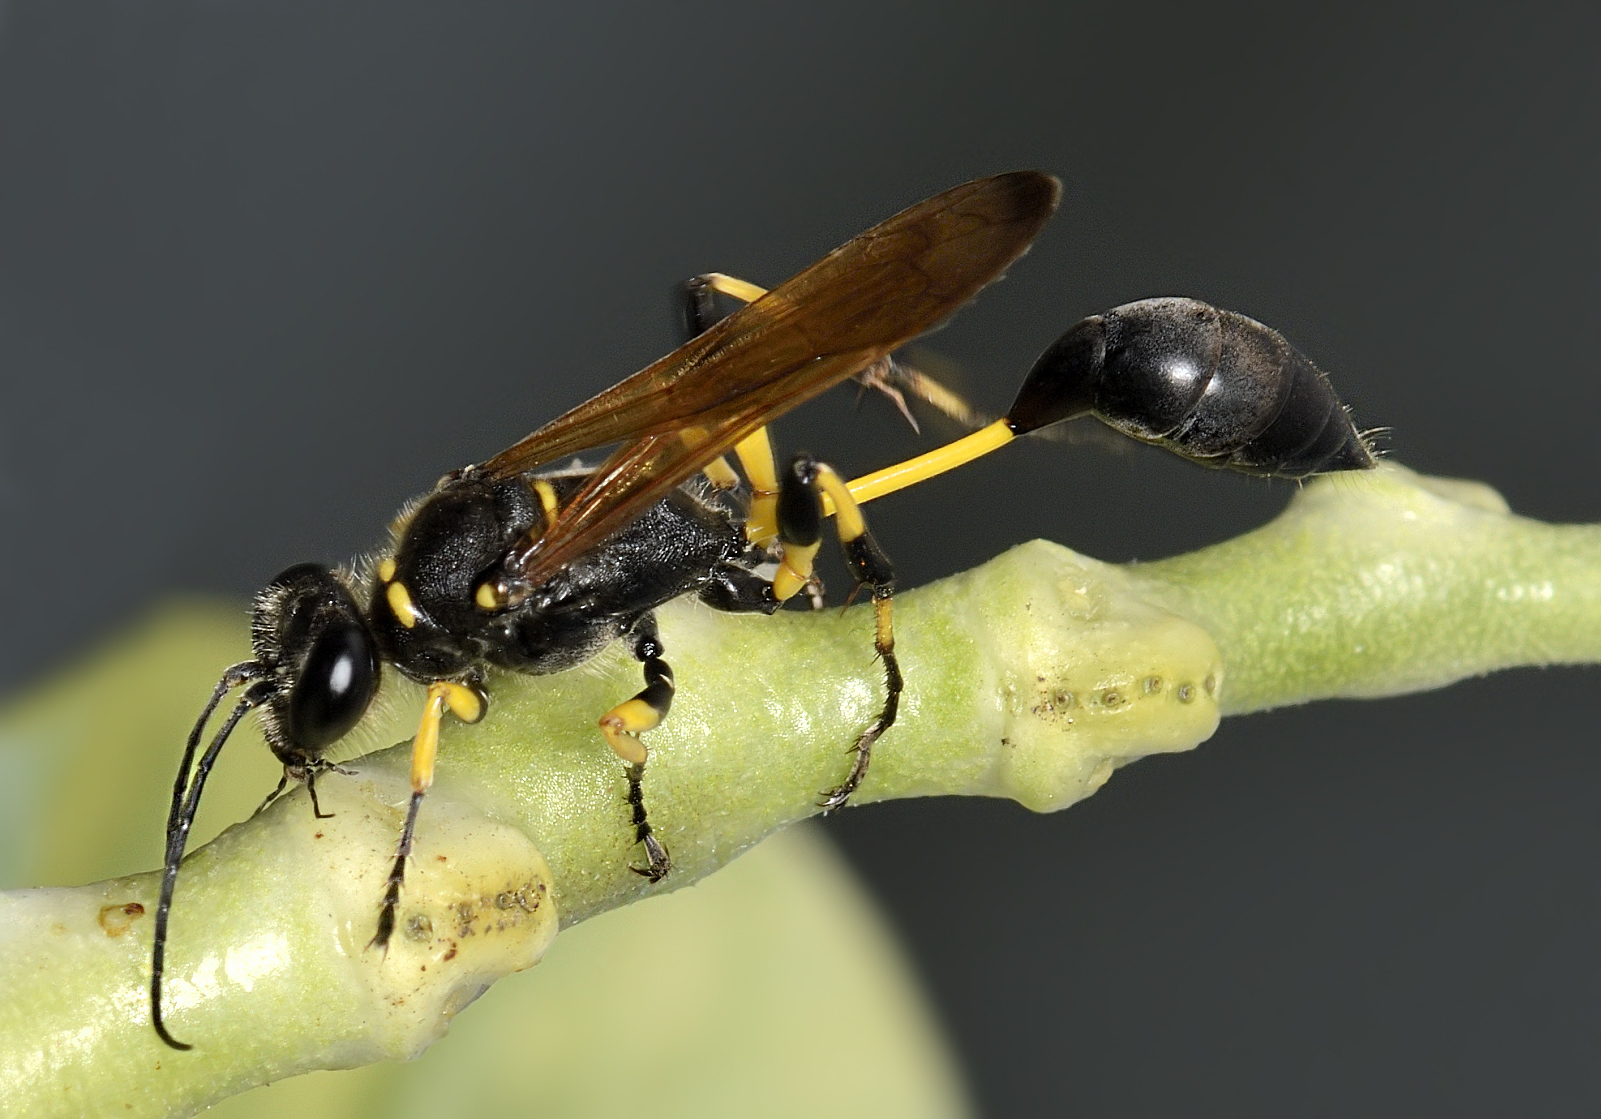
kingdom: Animalia
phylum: Arthropoda
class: Insecta
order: Hymenoptera
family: Sphecidae
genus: Sceliphron
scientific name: Sceliphron madraspatanum
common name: Mud dauber
